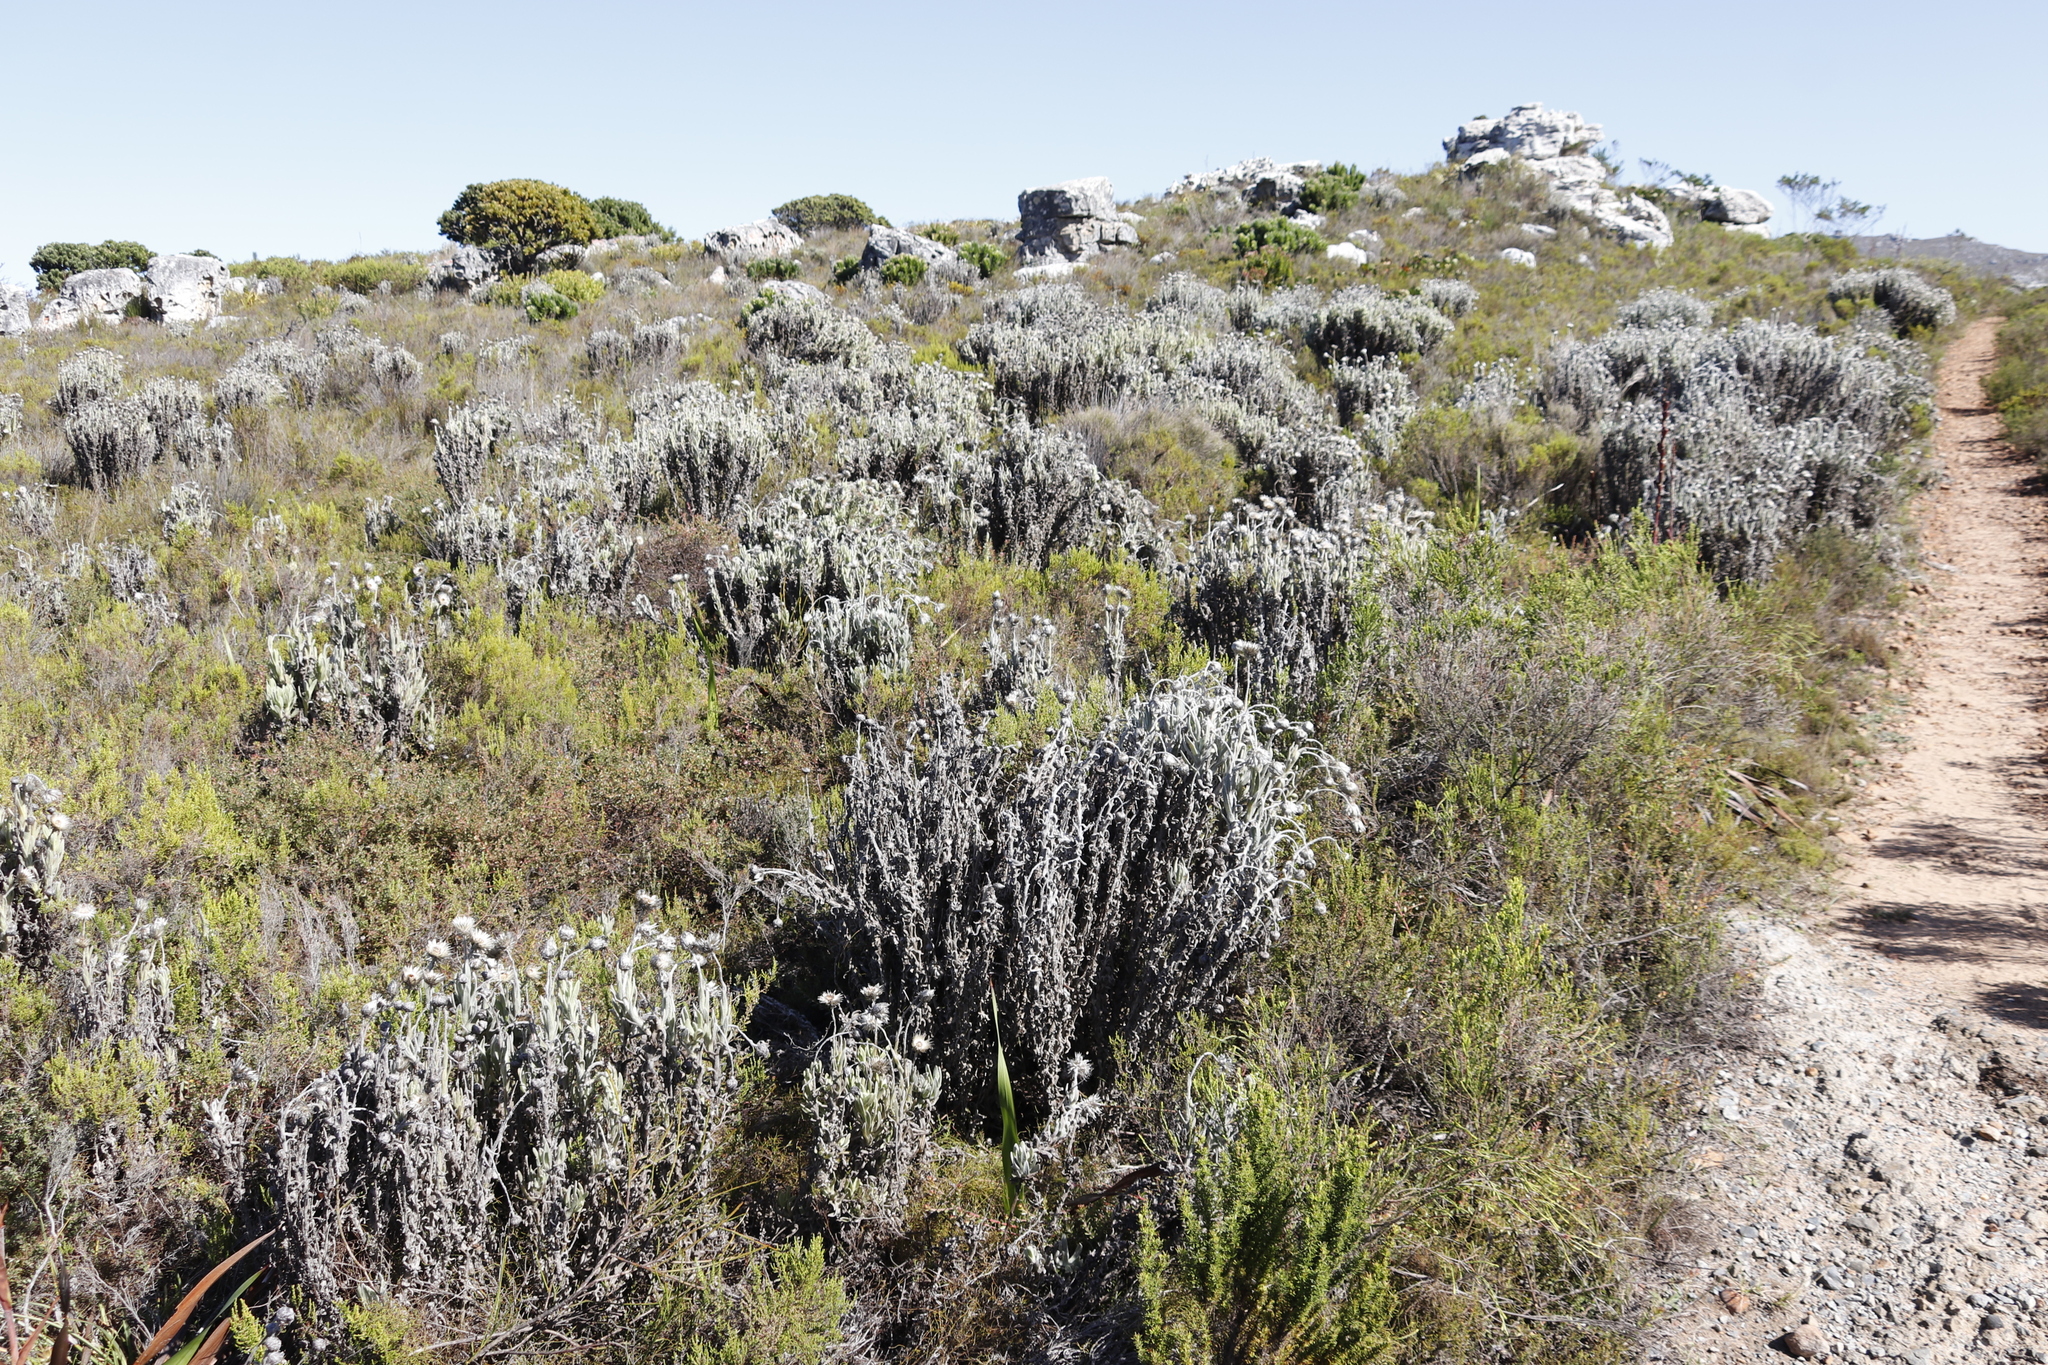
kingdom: Plantae
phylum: Tracheophyta
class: Magnoliopsida
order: Asterales
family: Asteraceae
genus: Syncarpha
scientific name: Syncarpha vestita
